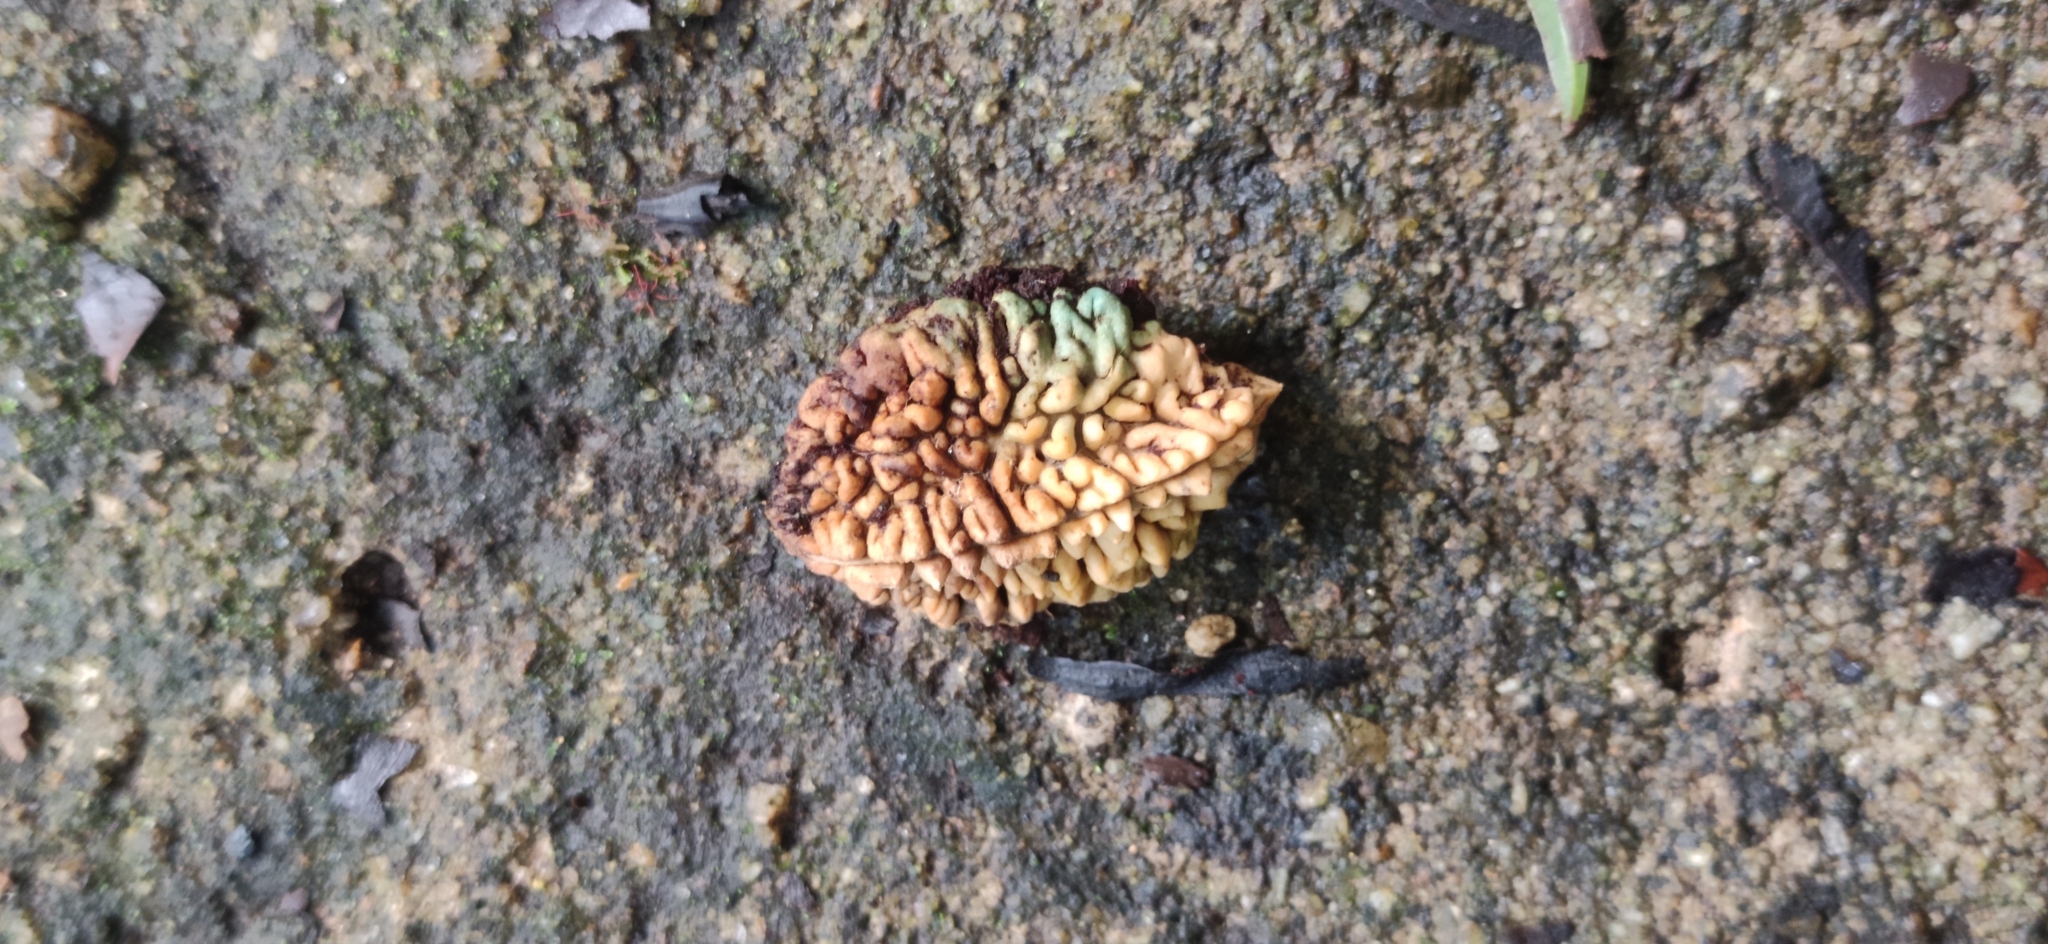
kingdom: Plantae
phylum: Tracheophyta
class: Magnoliopsida
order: Oxalidales
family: Elaeocarpaceae
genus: Elaeocarpus
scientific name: Elaeocarpus tuberculatus
